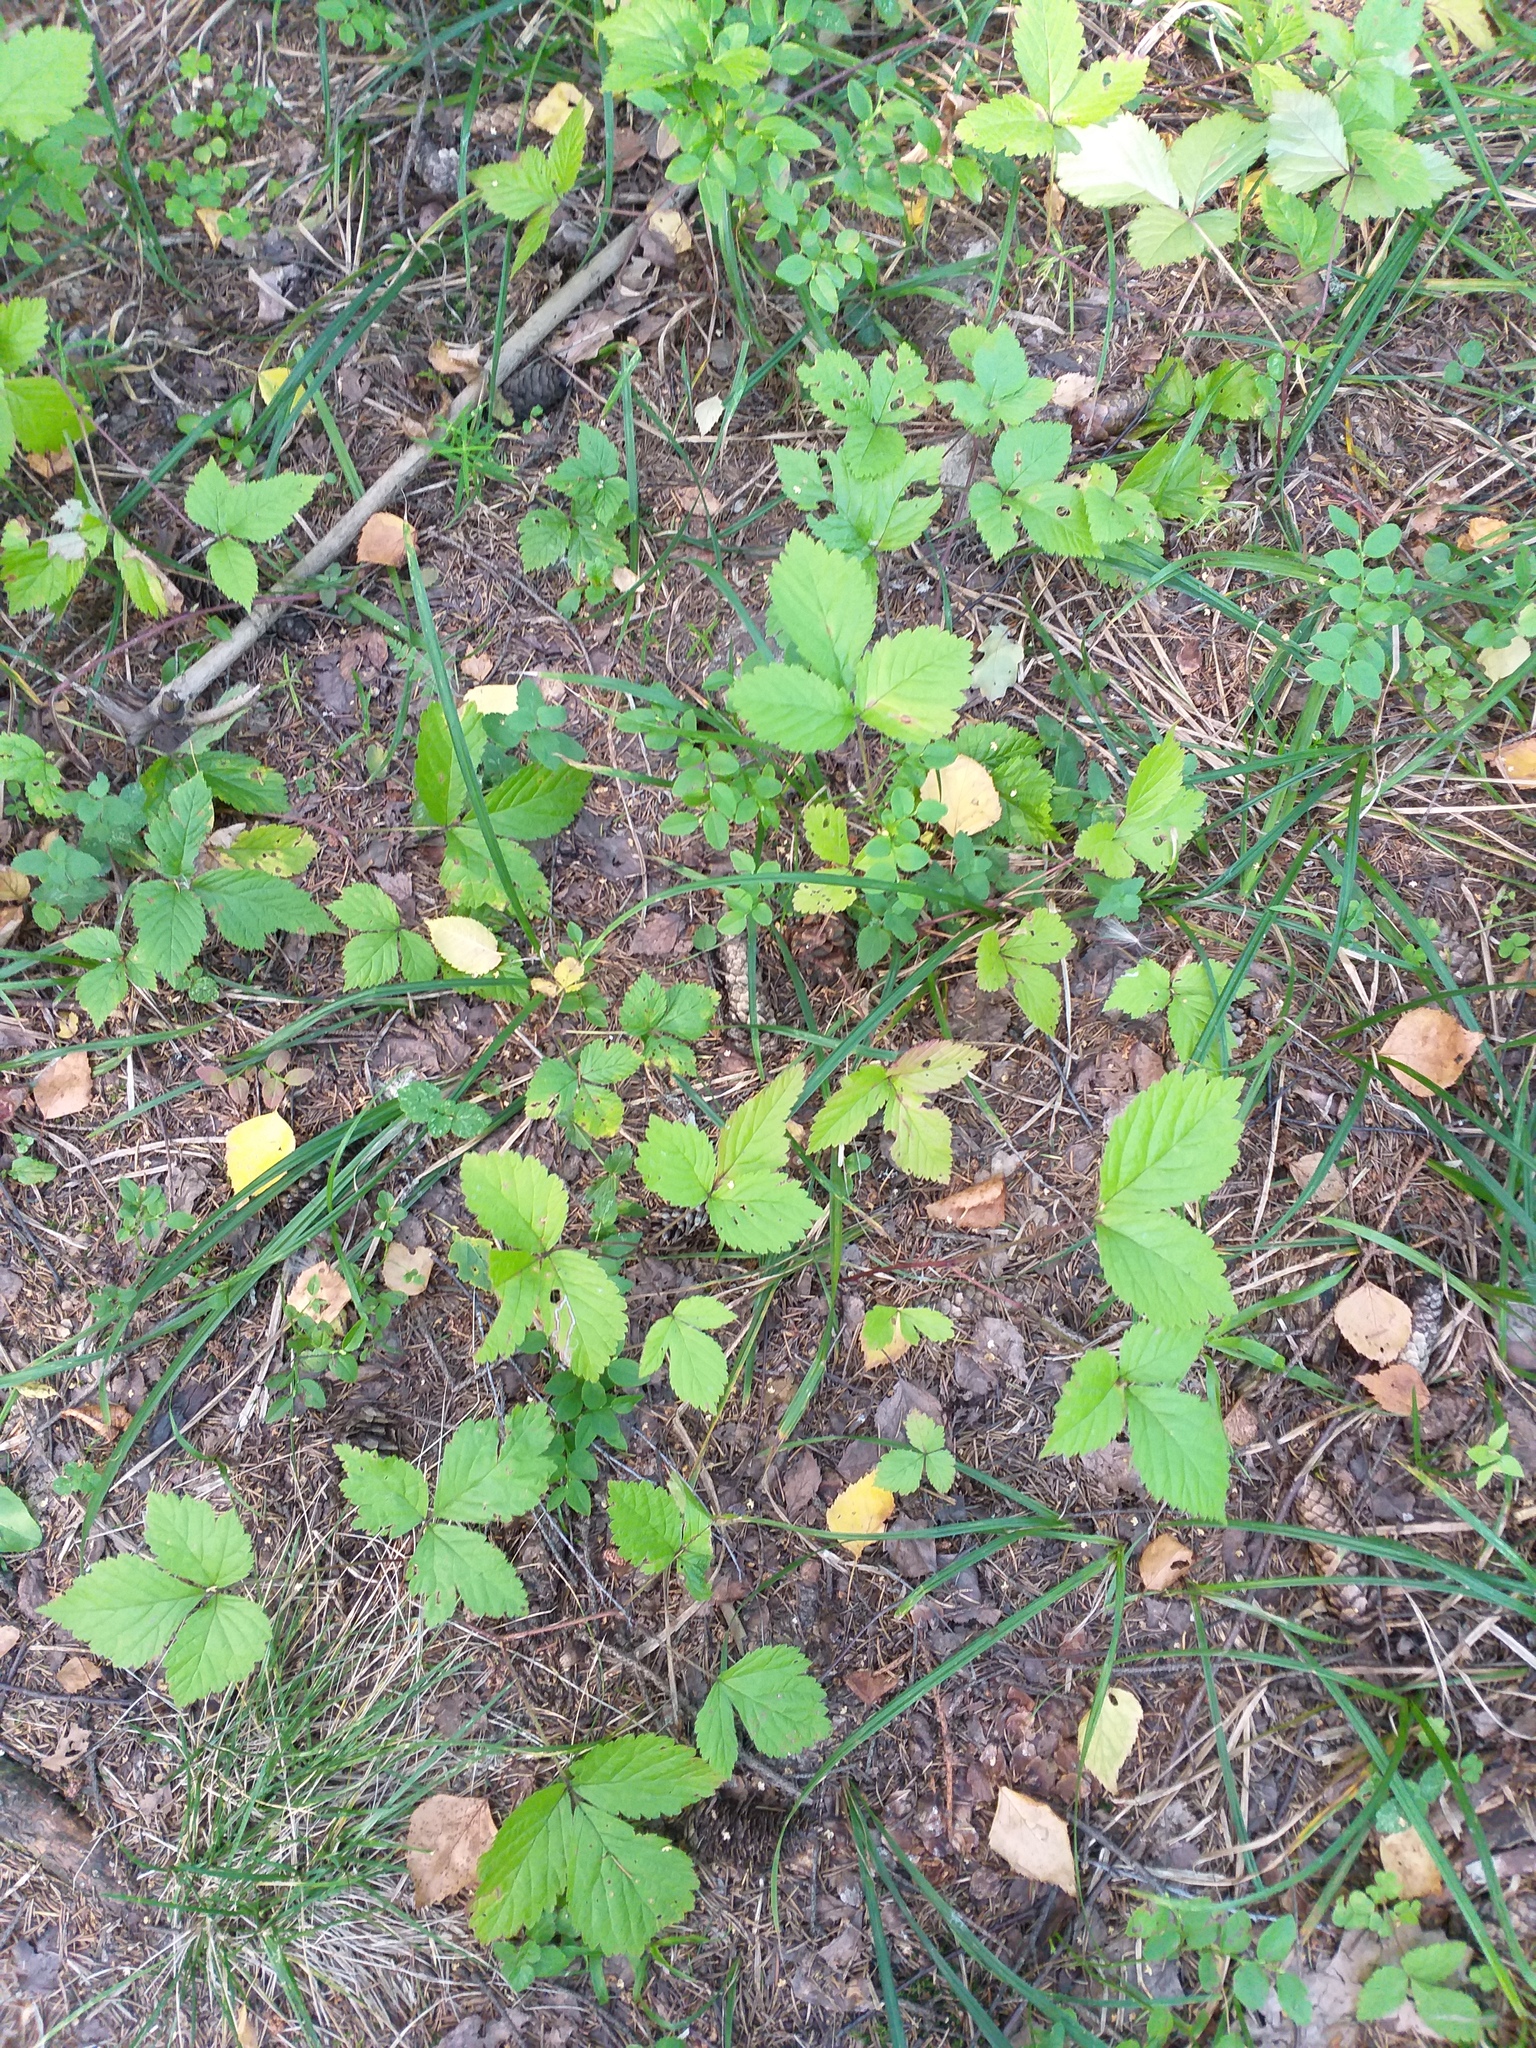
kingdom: Plantae
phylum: Tracheophyta
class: Magnoliopsida
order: Rosales
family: Rosaceae
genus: Rubus
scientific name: Rubus saxatilis
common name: Stone bramble
